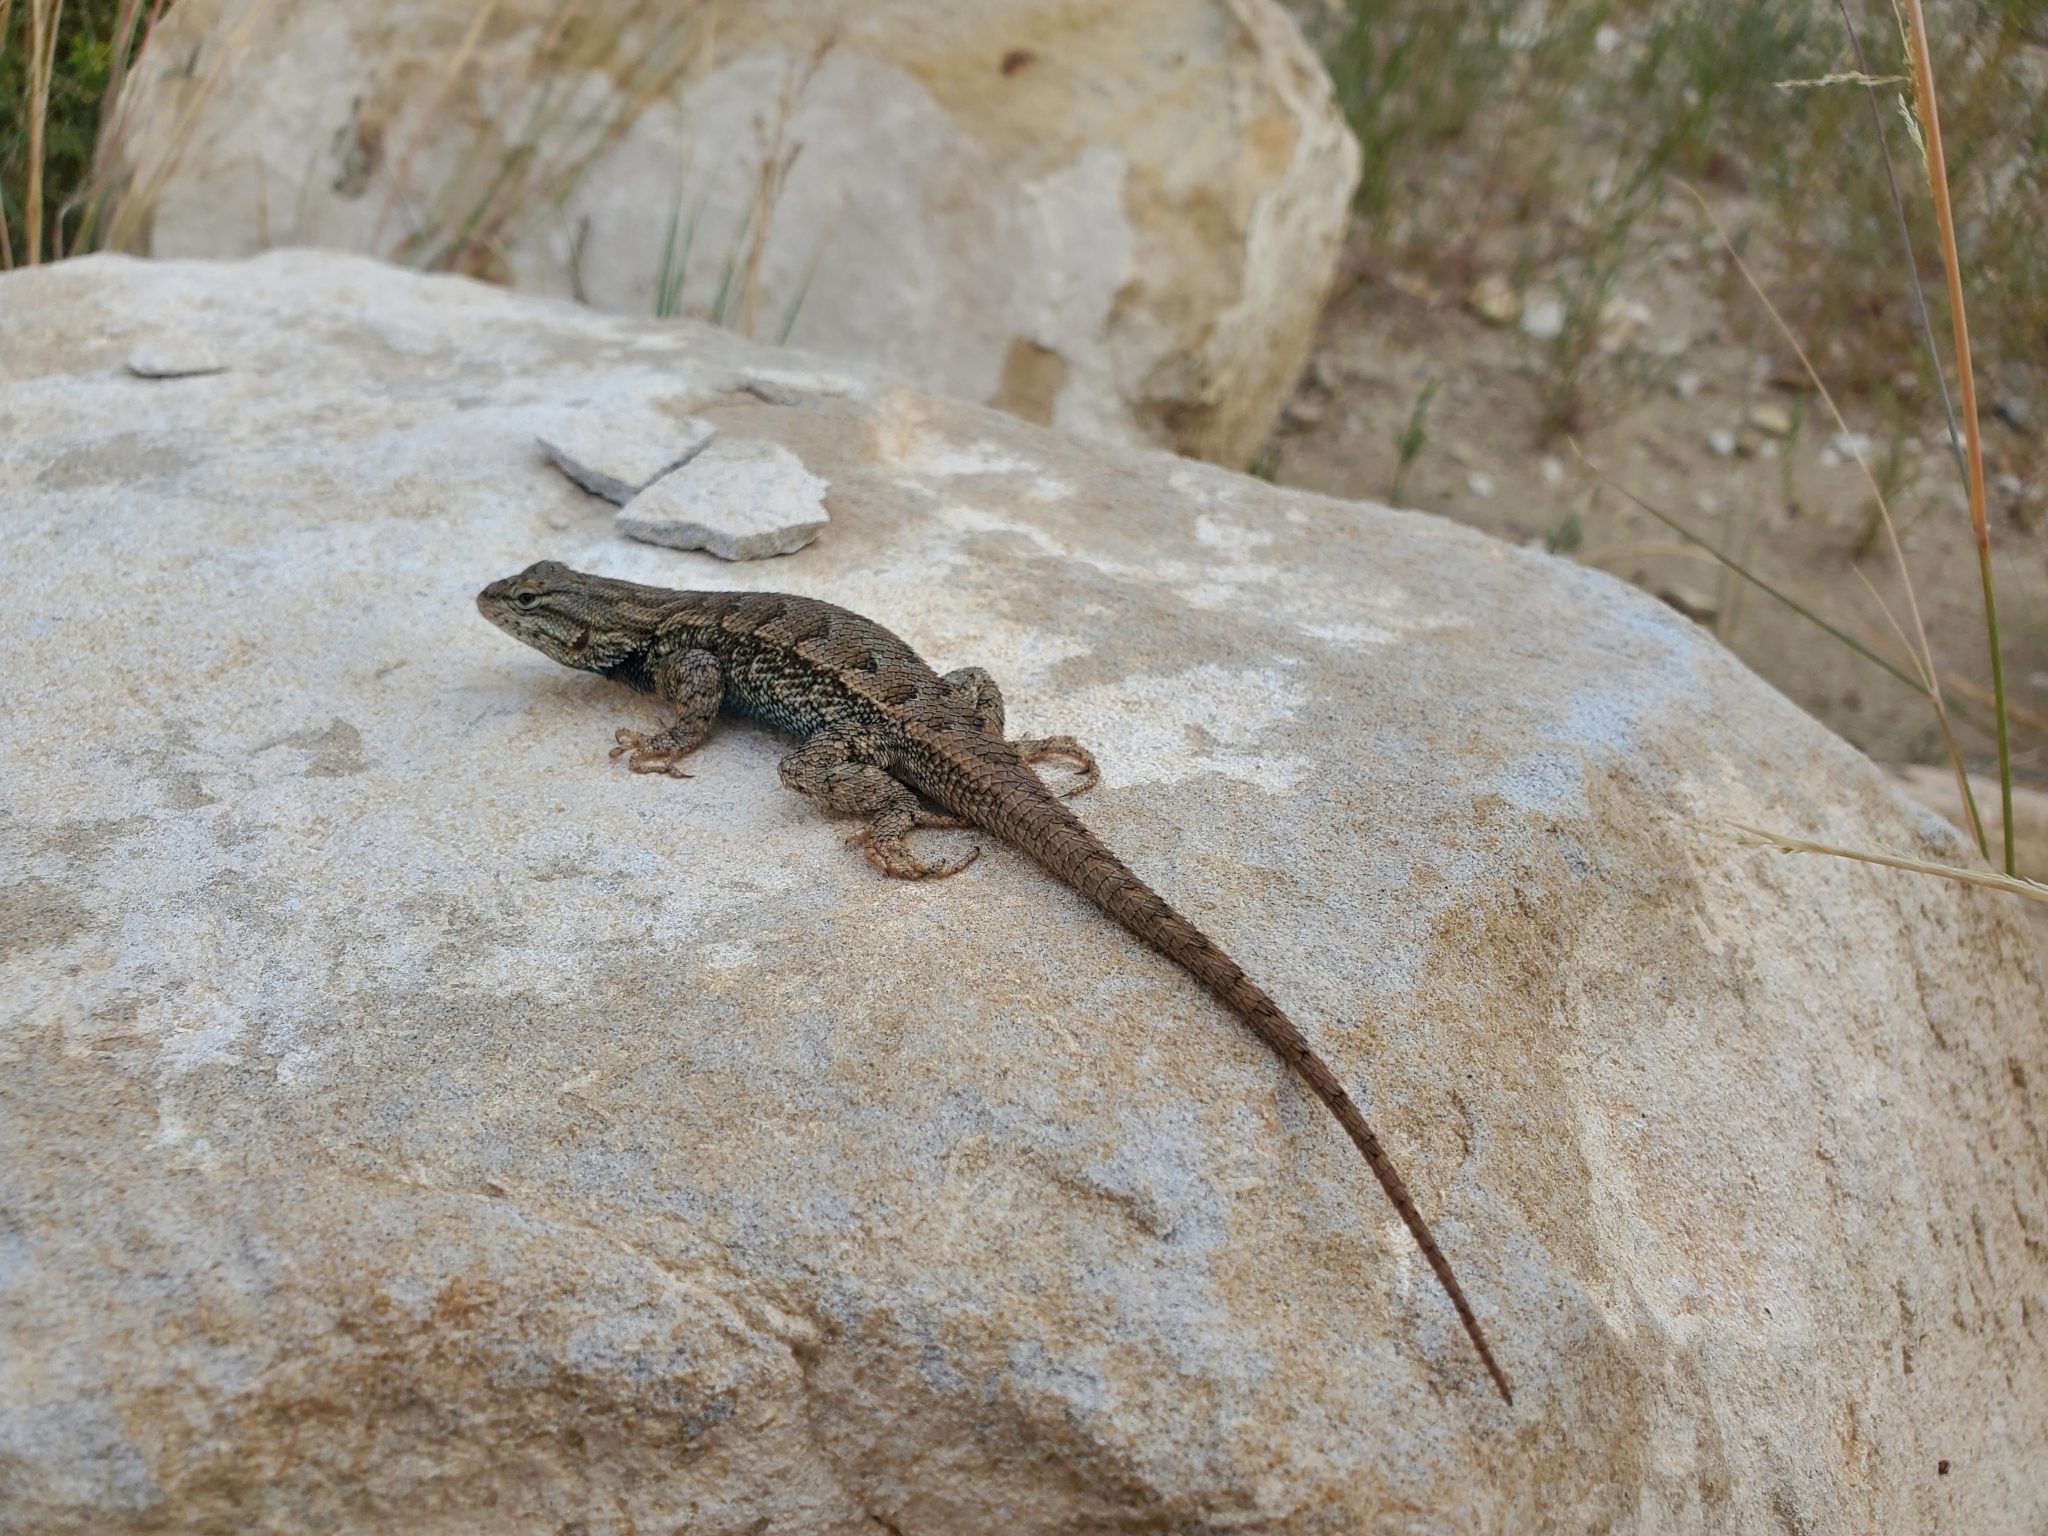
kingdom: Animalia
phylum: Chordata
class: Squamata
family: Phrynosomatidae
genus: Sceloporus
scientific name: Sceloporus consobrinus
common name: Southern prairie lizard
